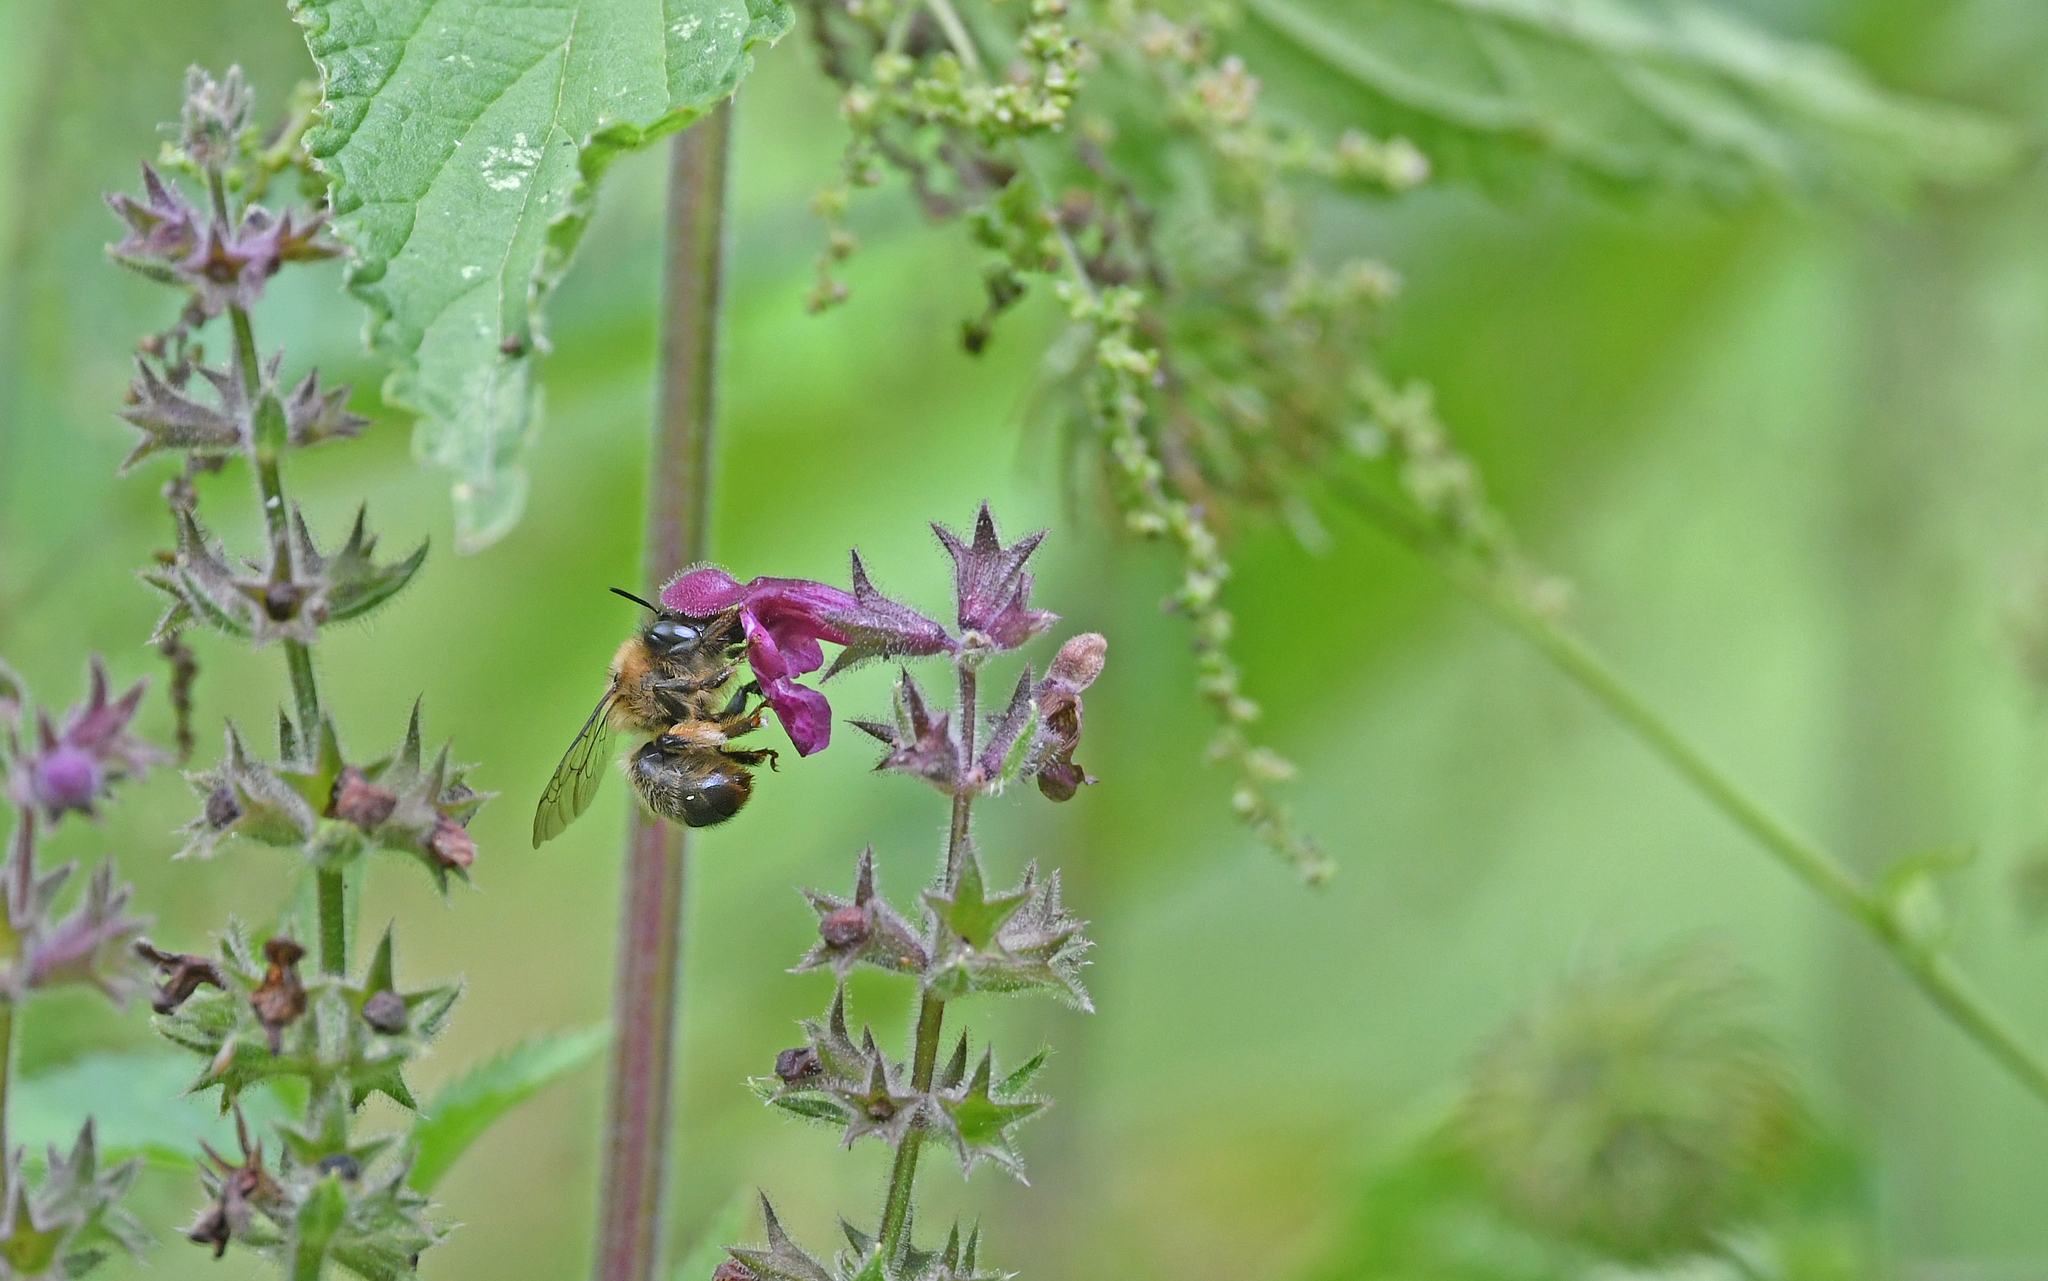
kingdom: Animalia
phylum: Arthropoda
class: Insecta
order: Hymenoptera
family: Apidae
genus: Anthophora
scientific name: Anthophora furcata
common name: Fork-tailed flower bee
